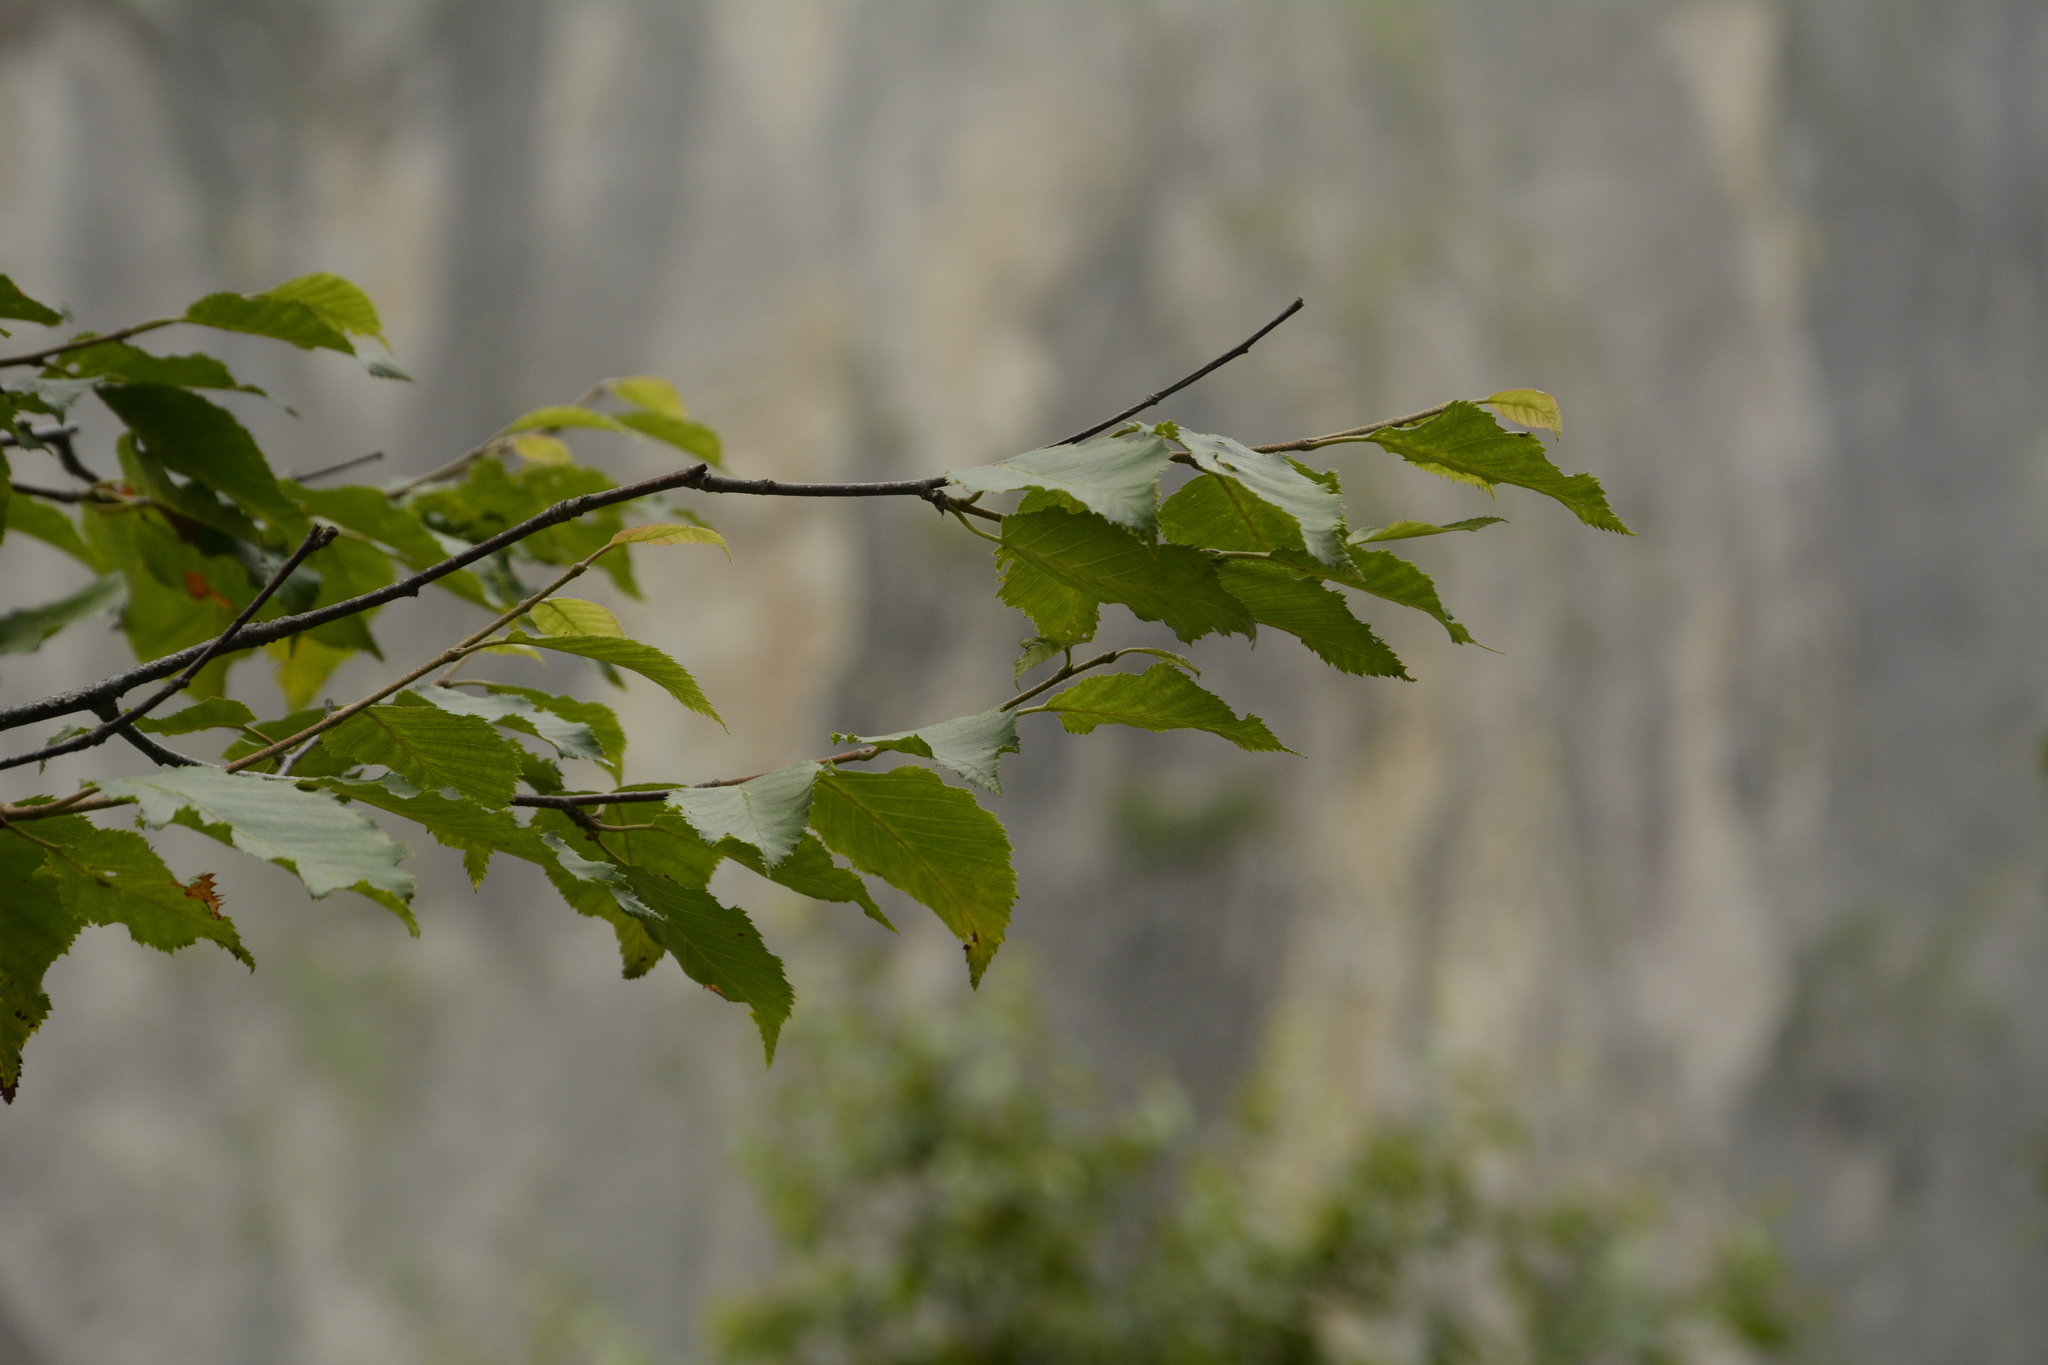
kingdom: Plantae
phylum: Tracheophyta
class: Magnoliopsida
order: Fagales
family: Betulaceae
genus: Betula
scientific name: Betula alnoides
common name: Indian birch
